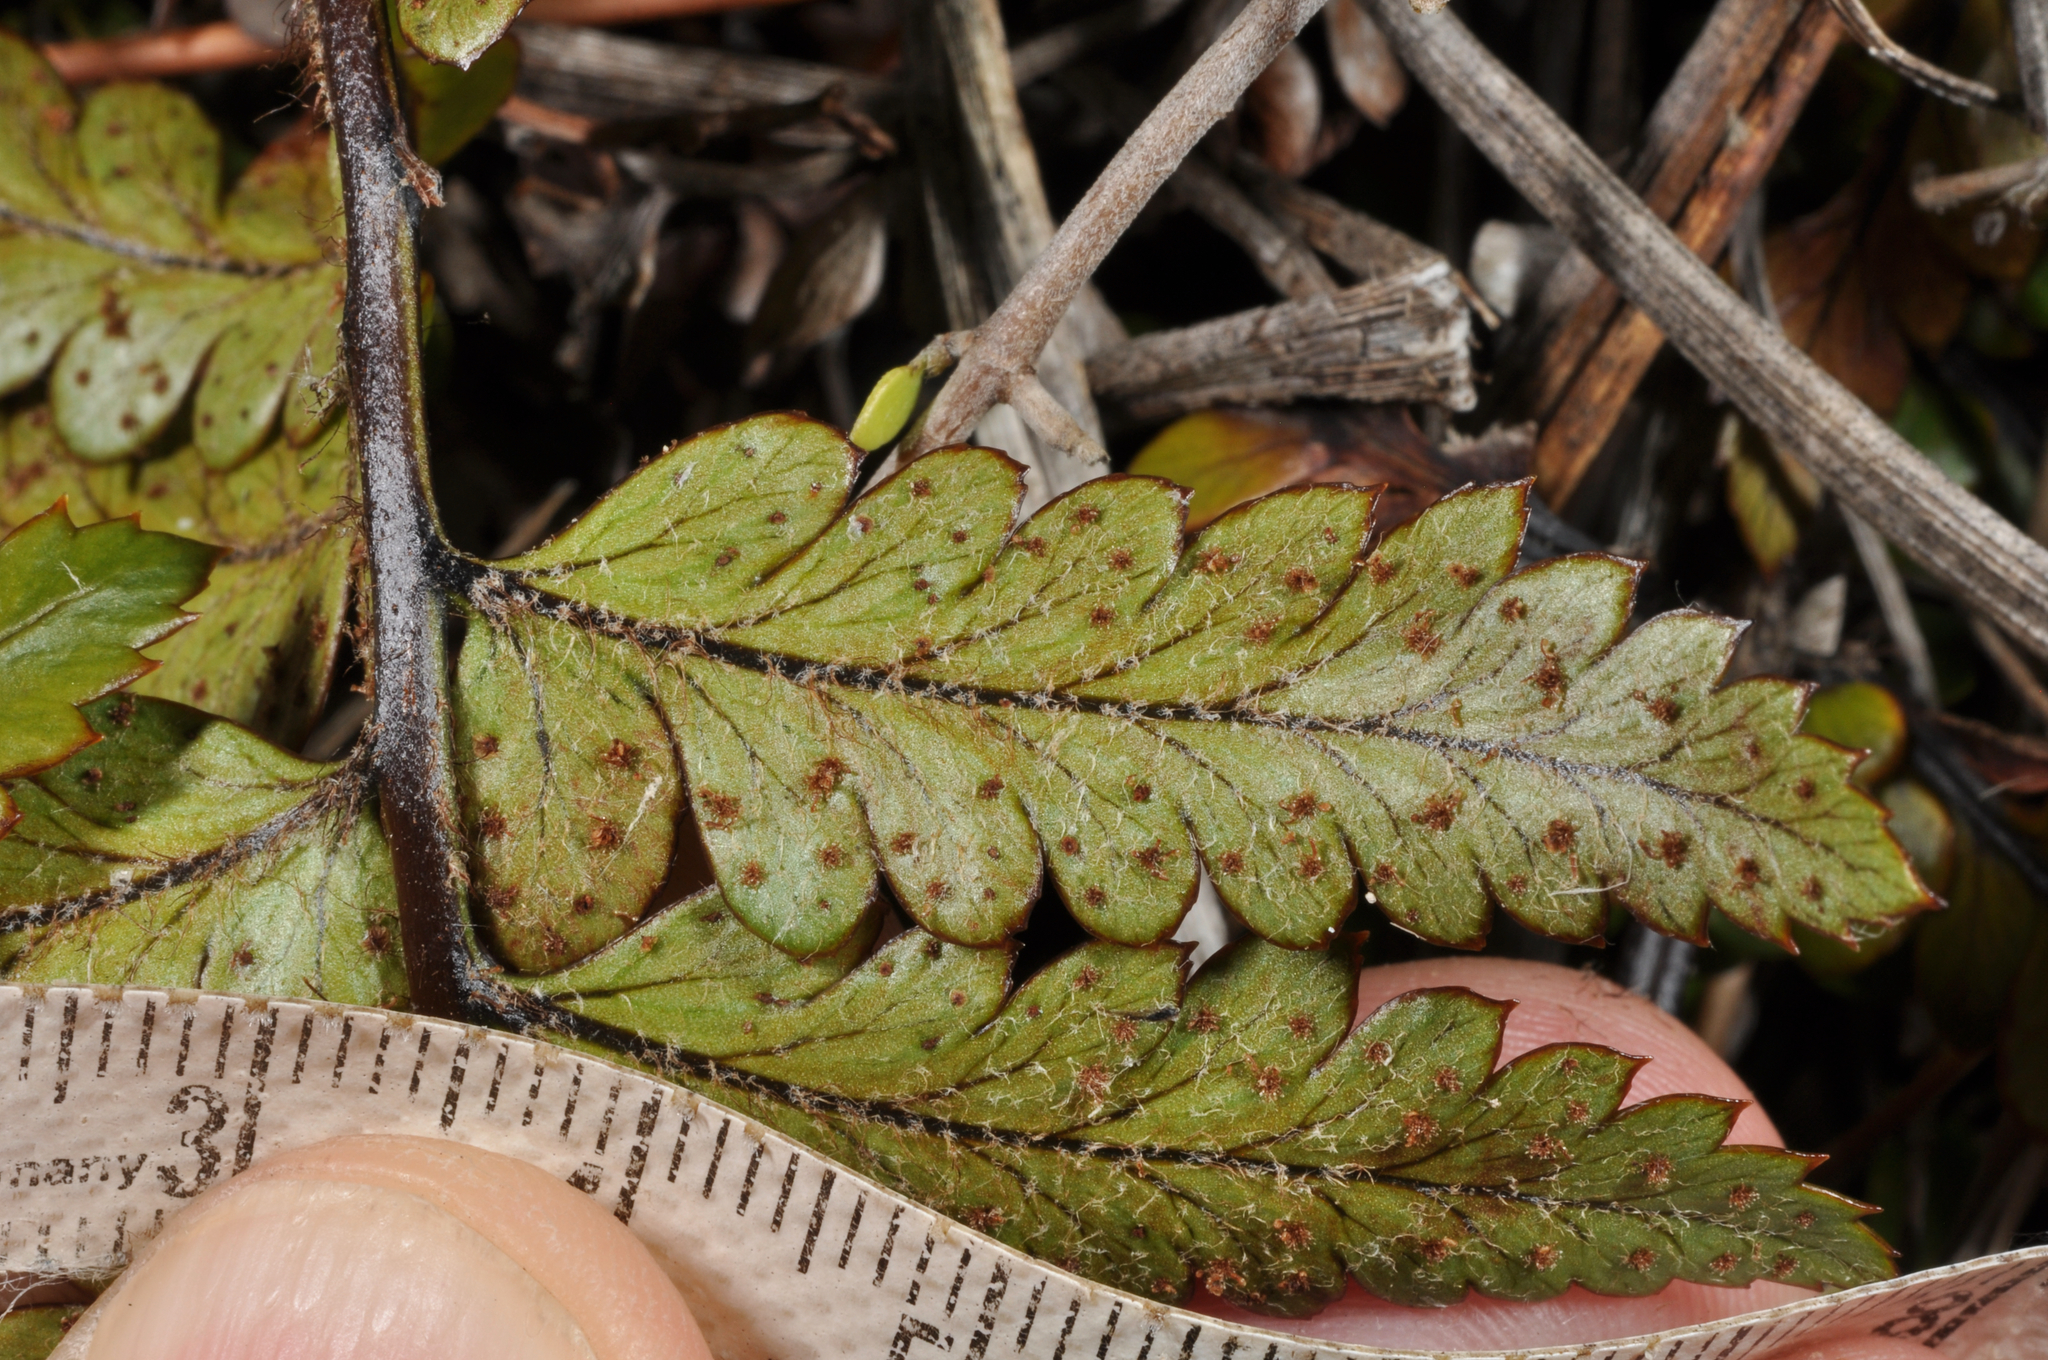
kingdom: Plantae
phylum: Tracheophyta
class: Polypodiopsida
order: Polypodiales
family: Dryopteridaceae
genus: Polystichum
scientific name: Polystichum wawranum
